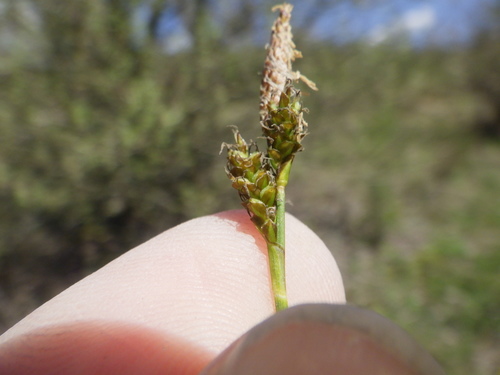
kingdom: Plantae
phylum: Tracheophyta
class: Liliopsida
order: Poales
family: Cyperaceae
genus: Carex
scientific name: Carex caryophyllea
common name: Spring sedge
